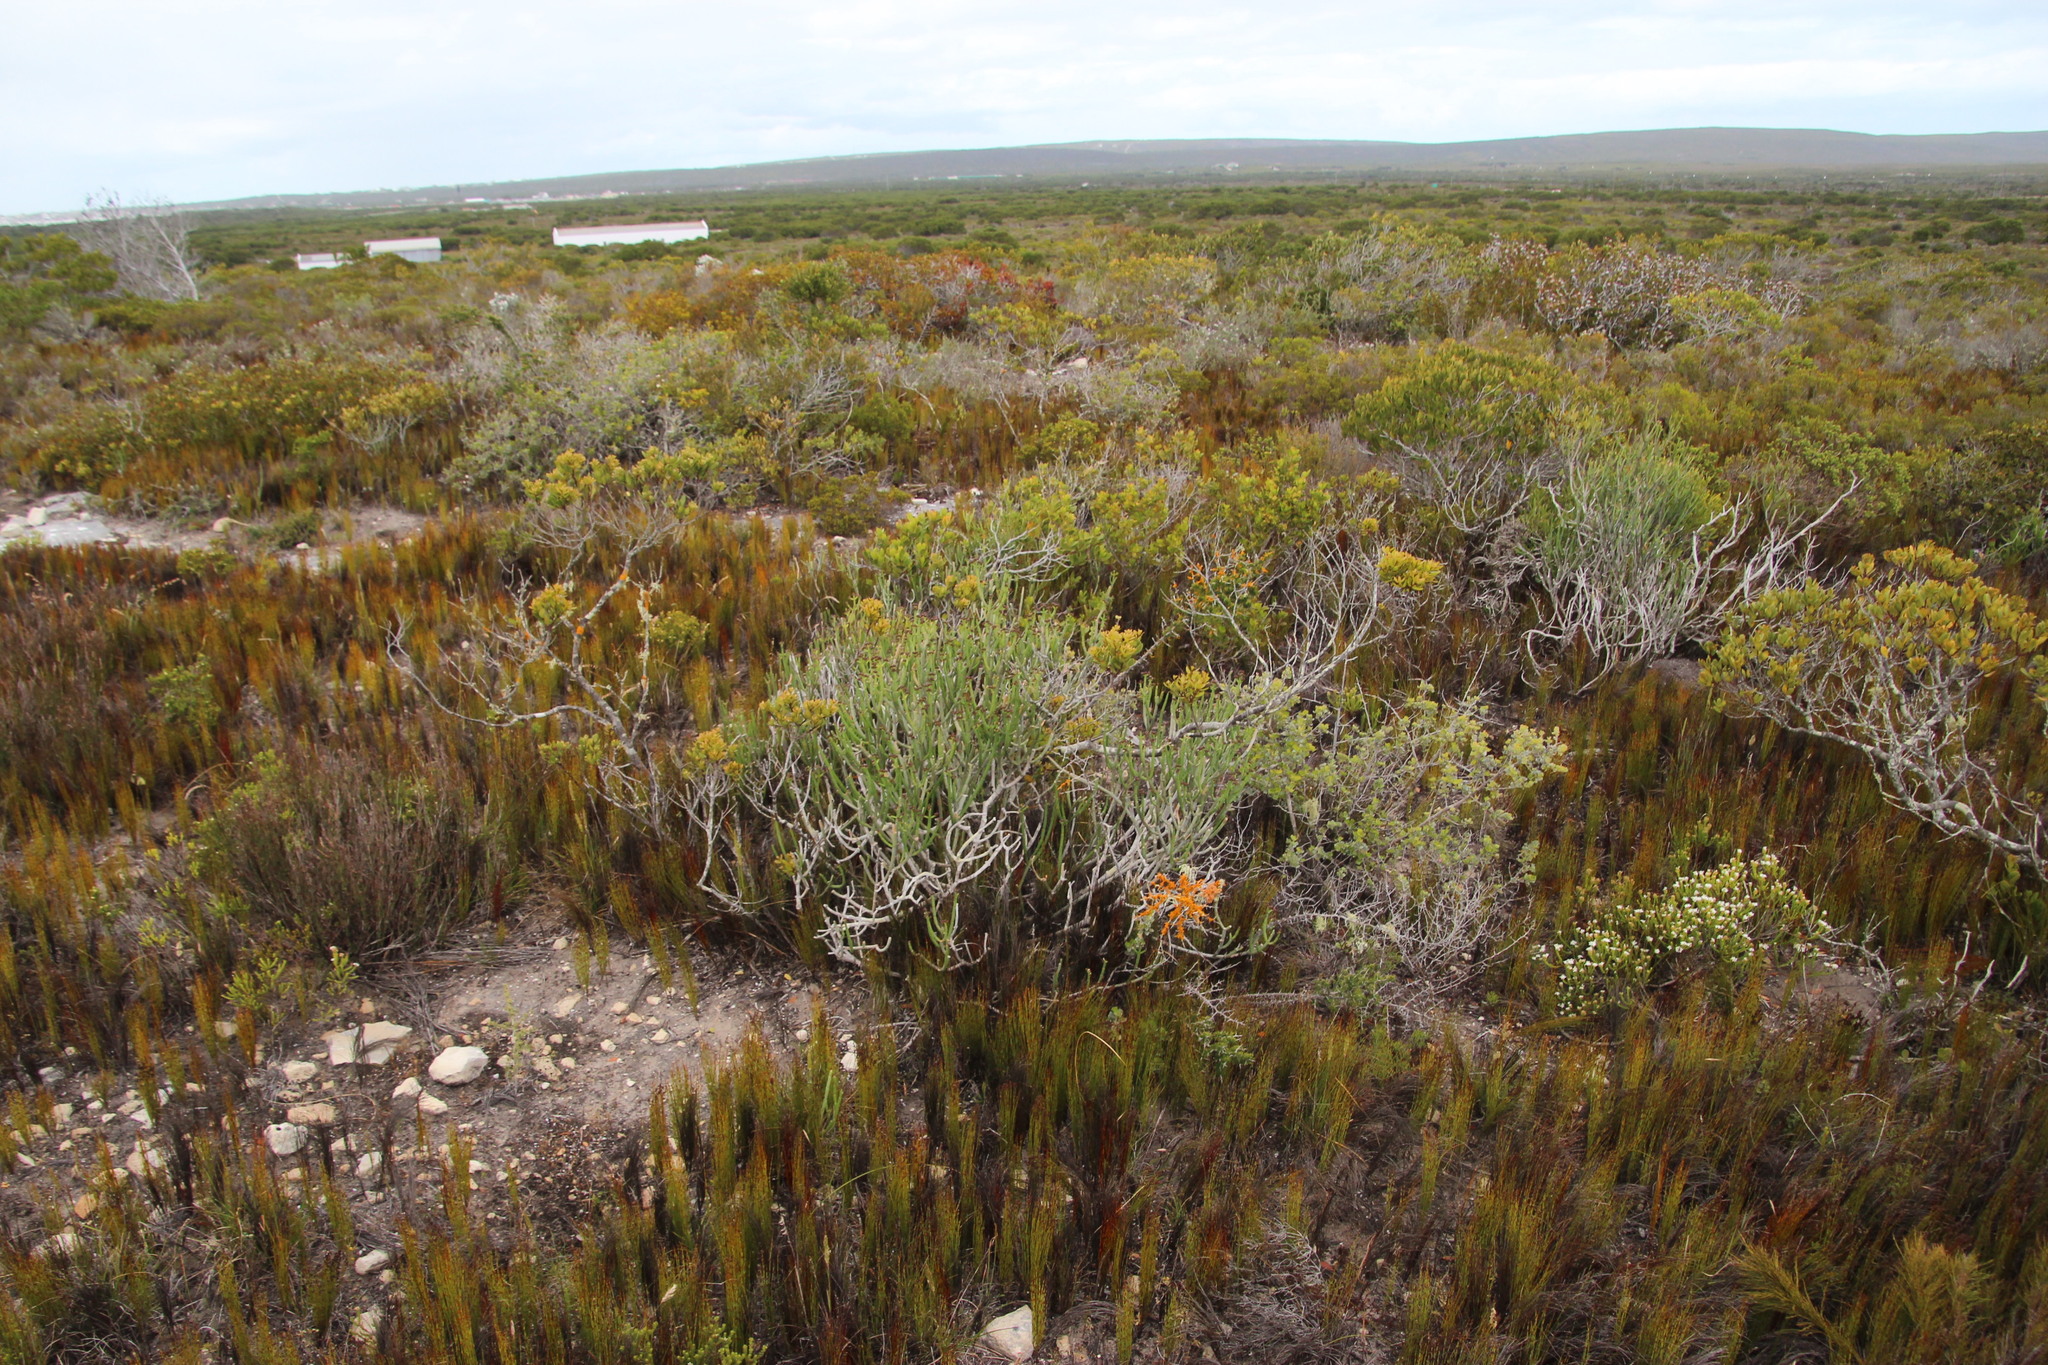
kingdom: Plantae
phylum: Tracheophyta
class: Magnoliopsida
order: Malpighiales
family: Euphorbiaceae
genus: Euphorbia
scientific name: Euphorbia burmanni
